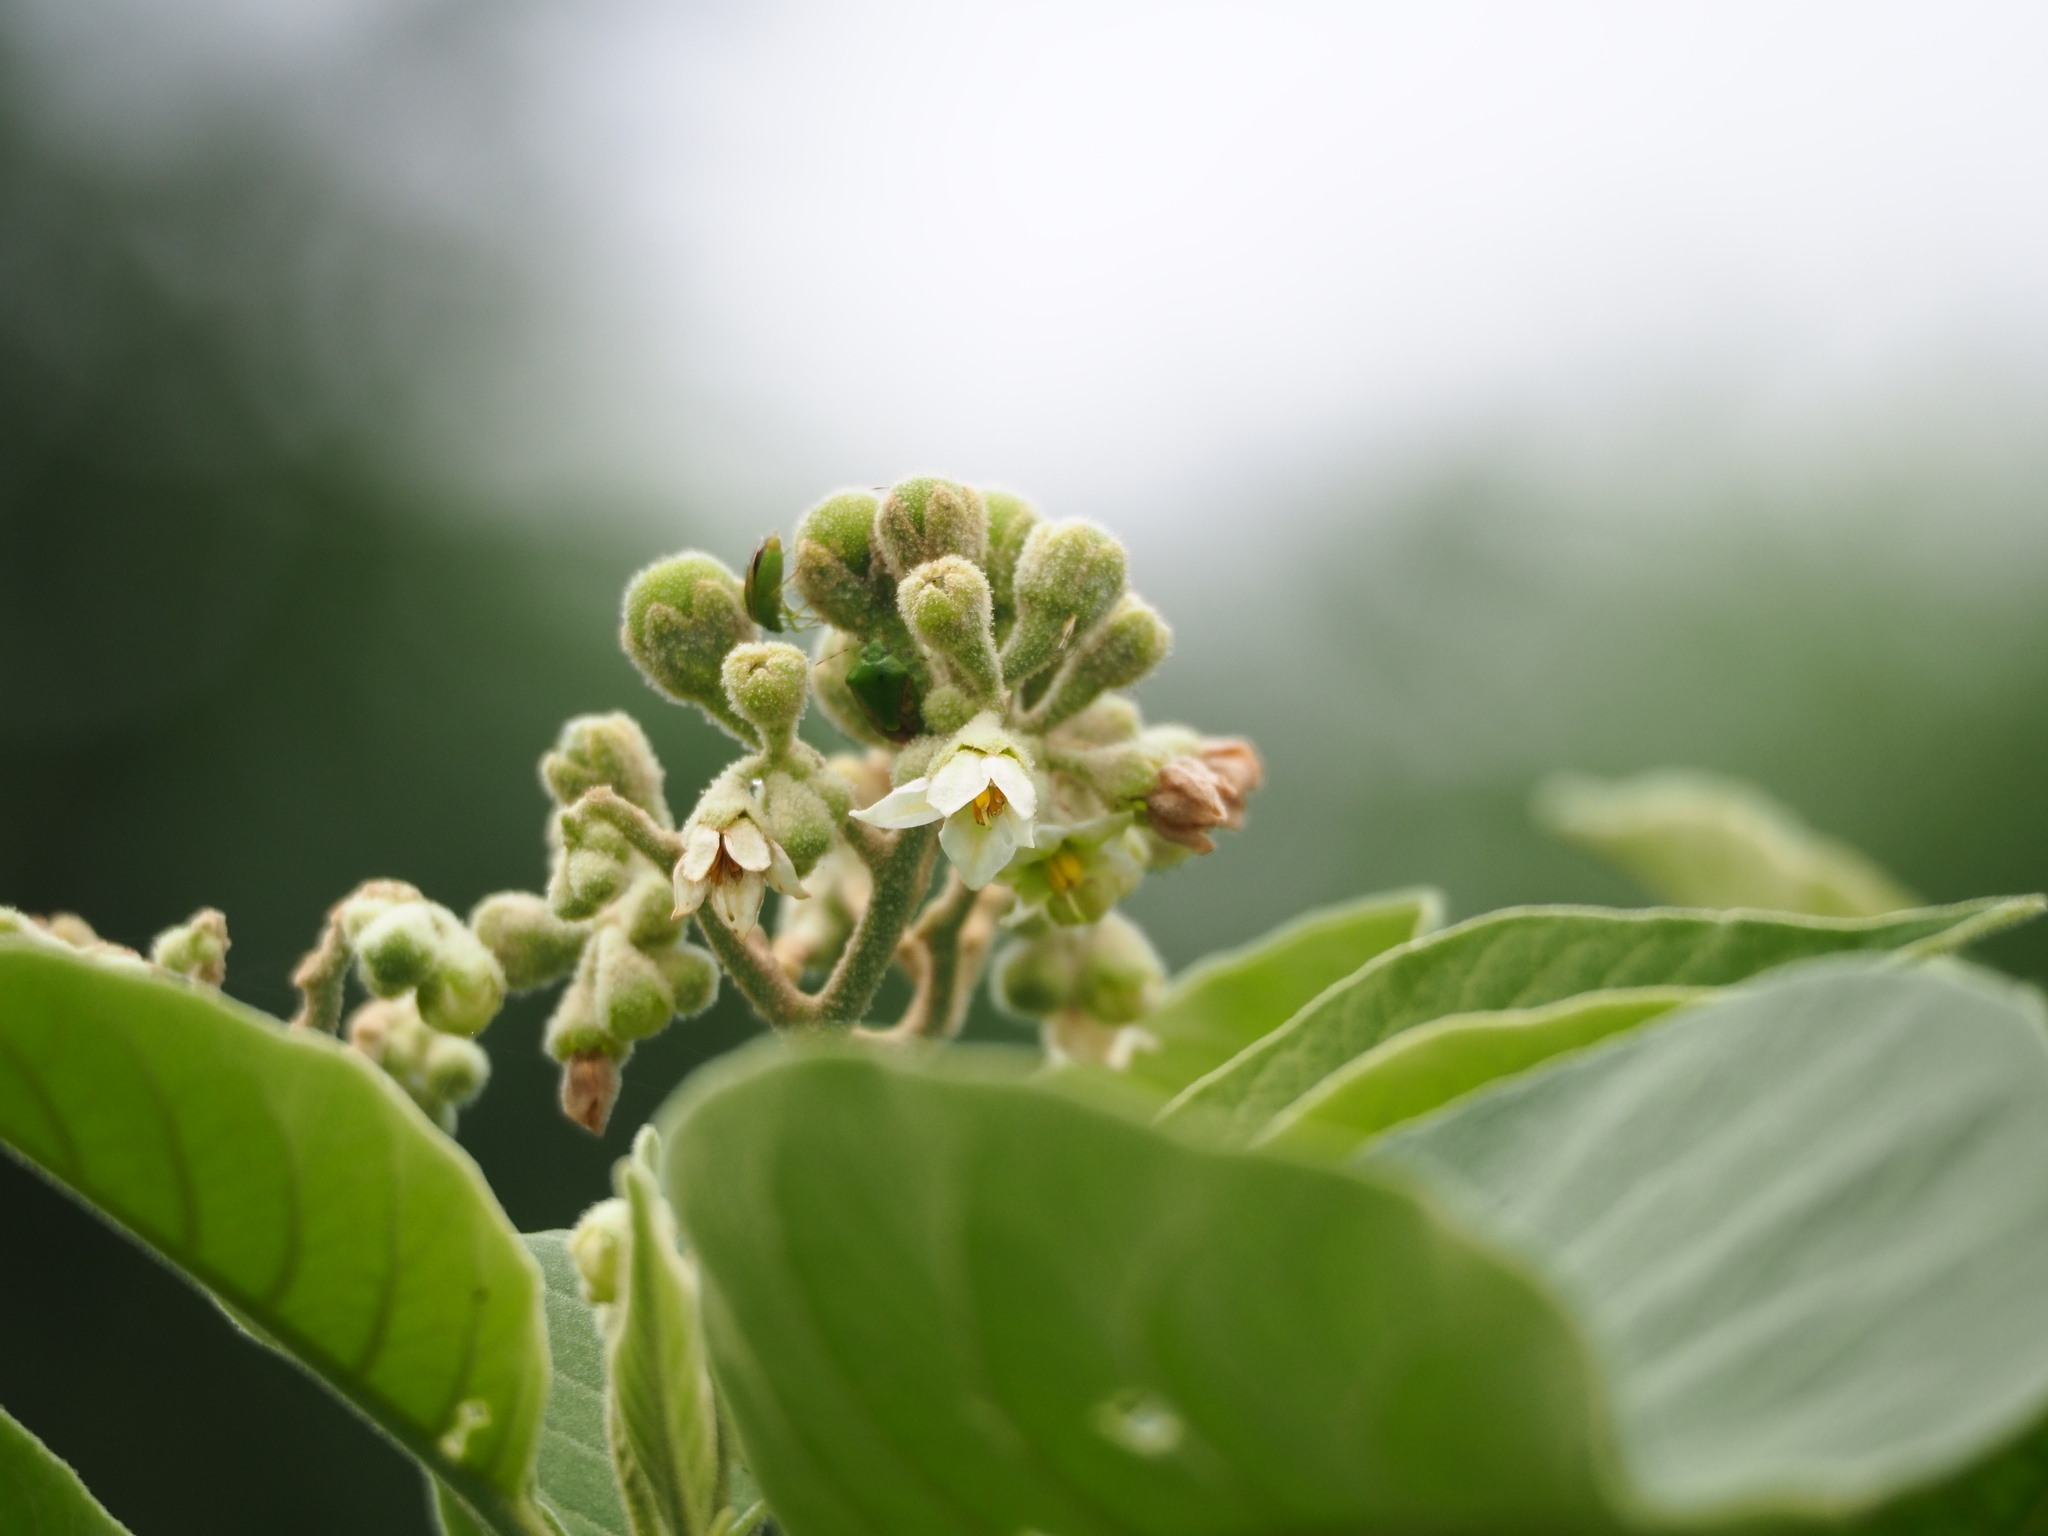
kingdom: Plantae
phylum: Tracheophyta
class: Magnoliopsida
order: Solanales
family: Solanaceae
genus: Solanum
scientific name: Solanum erianthum
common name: Tobacco-tree
